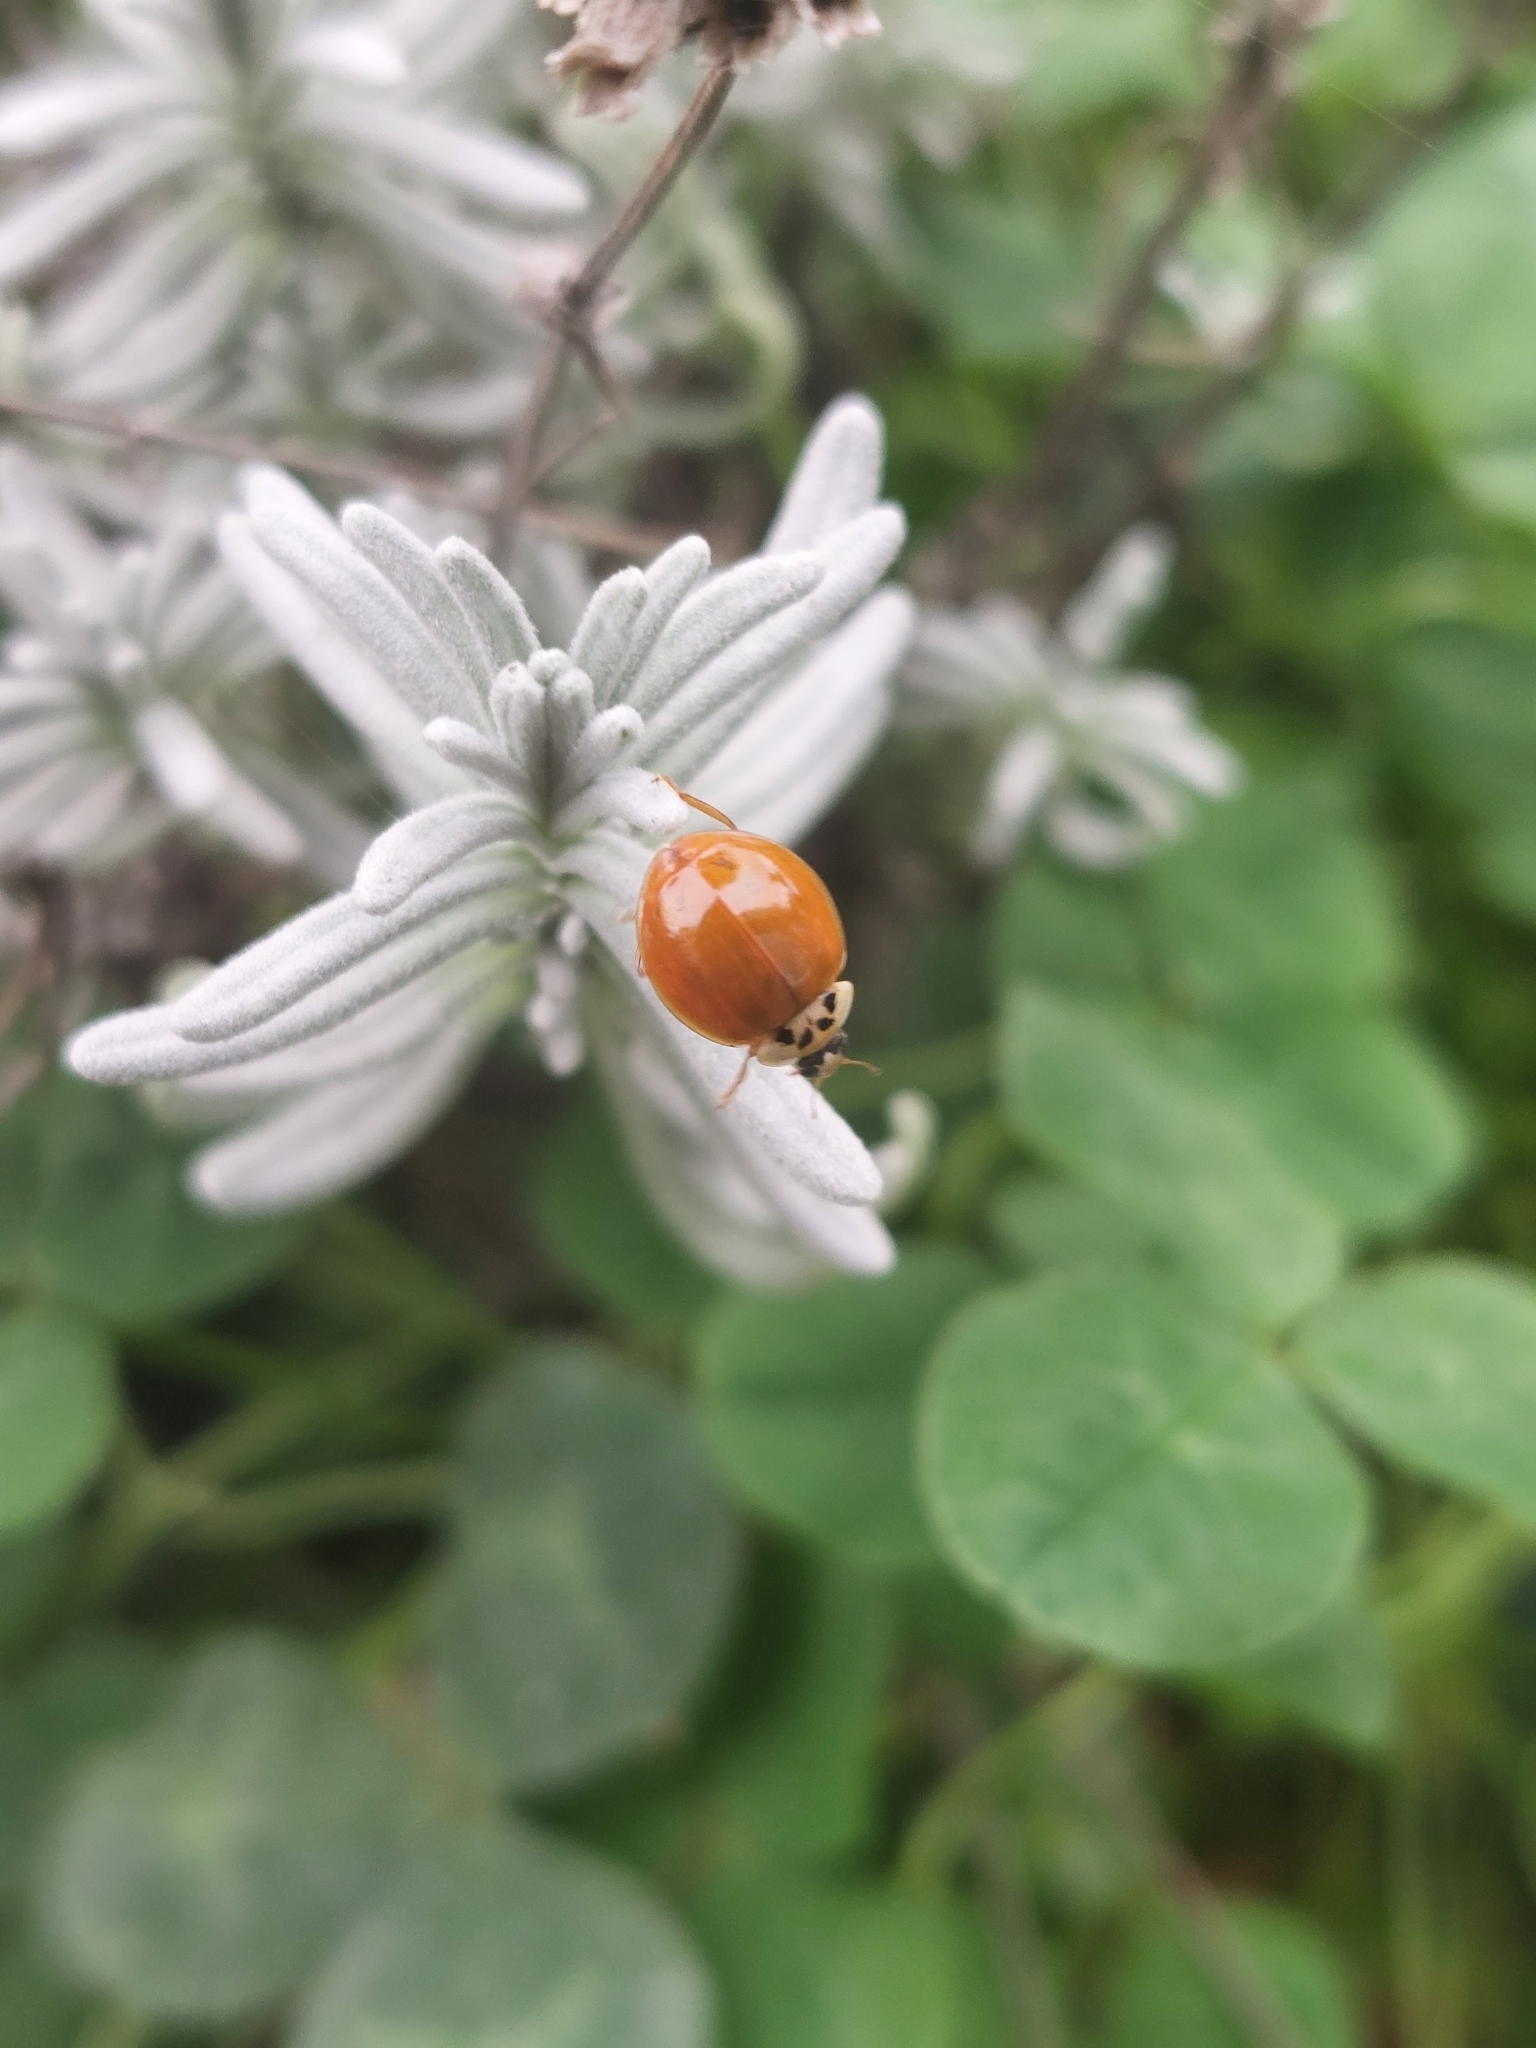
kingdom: Animalia
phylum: Arthropoda
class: Insecta
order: Coleoptera
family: Coccinellidae
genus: Harmonia
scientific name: Harmonia axyridis
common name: Harlequin ladybird
